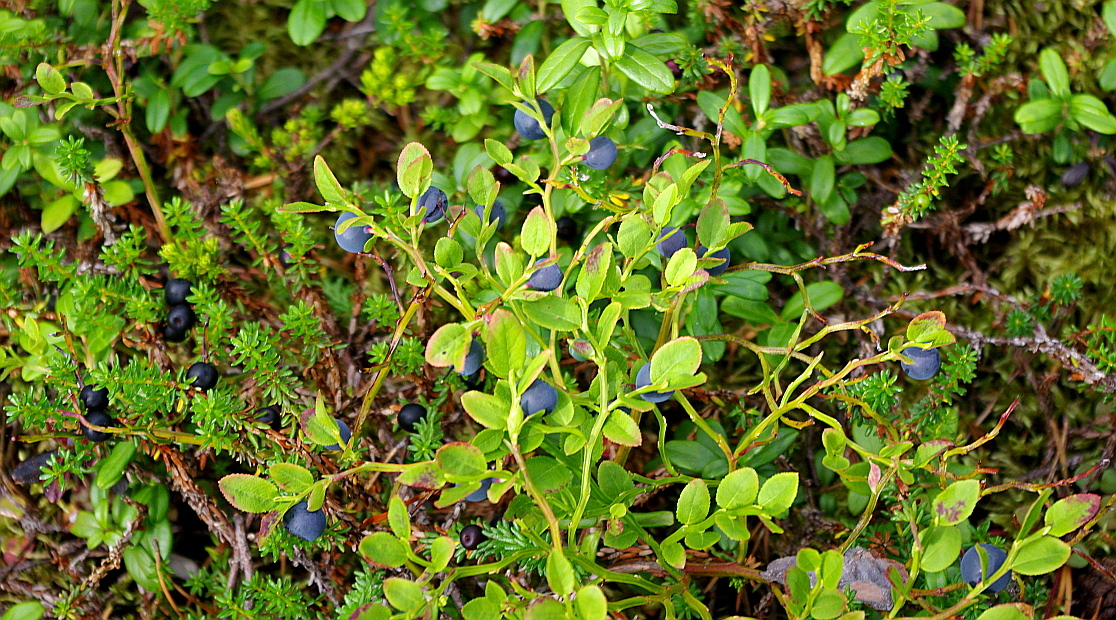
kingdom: Plantae
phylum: Tracheophyta
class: Magnoliopsida
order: Ericales
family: Ericaceae
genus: Vaccinium
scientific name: Vaccinium myrtillus
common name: Bilberry
